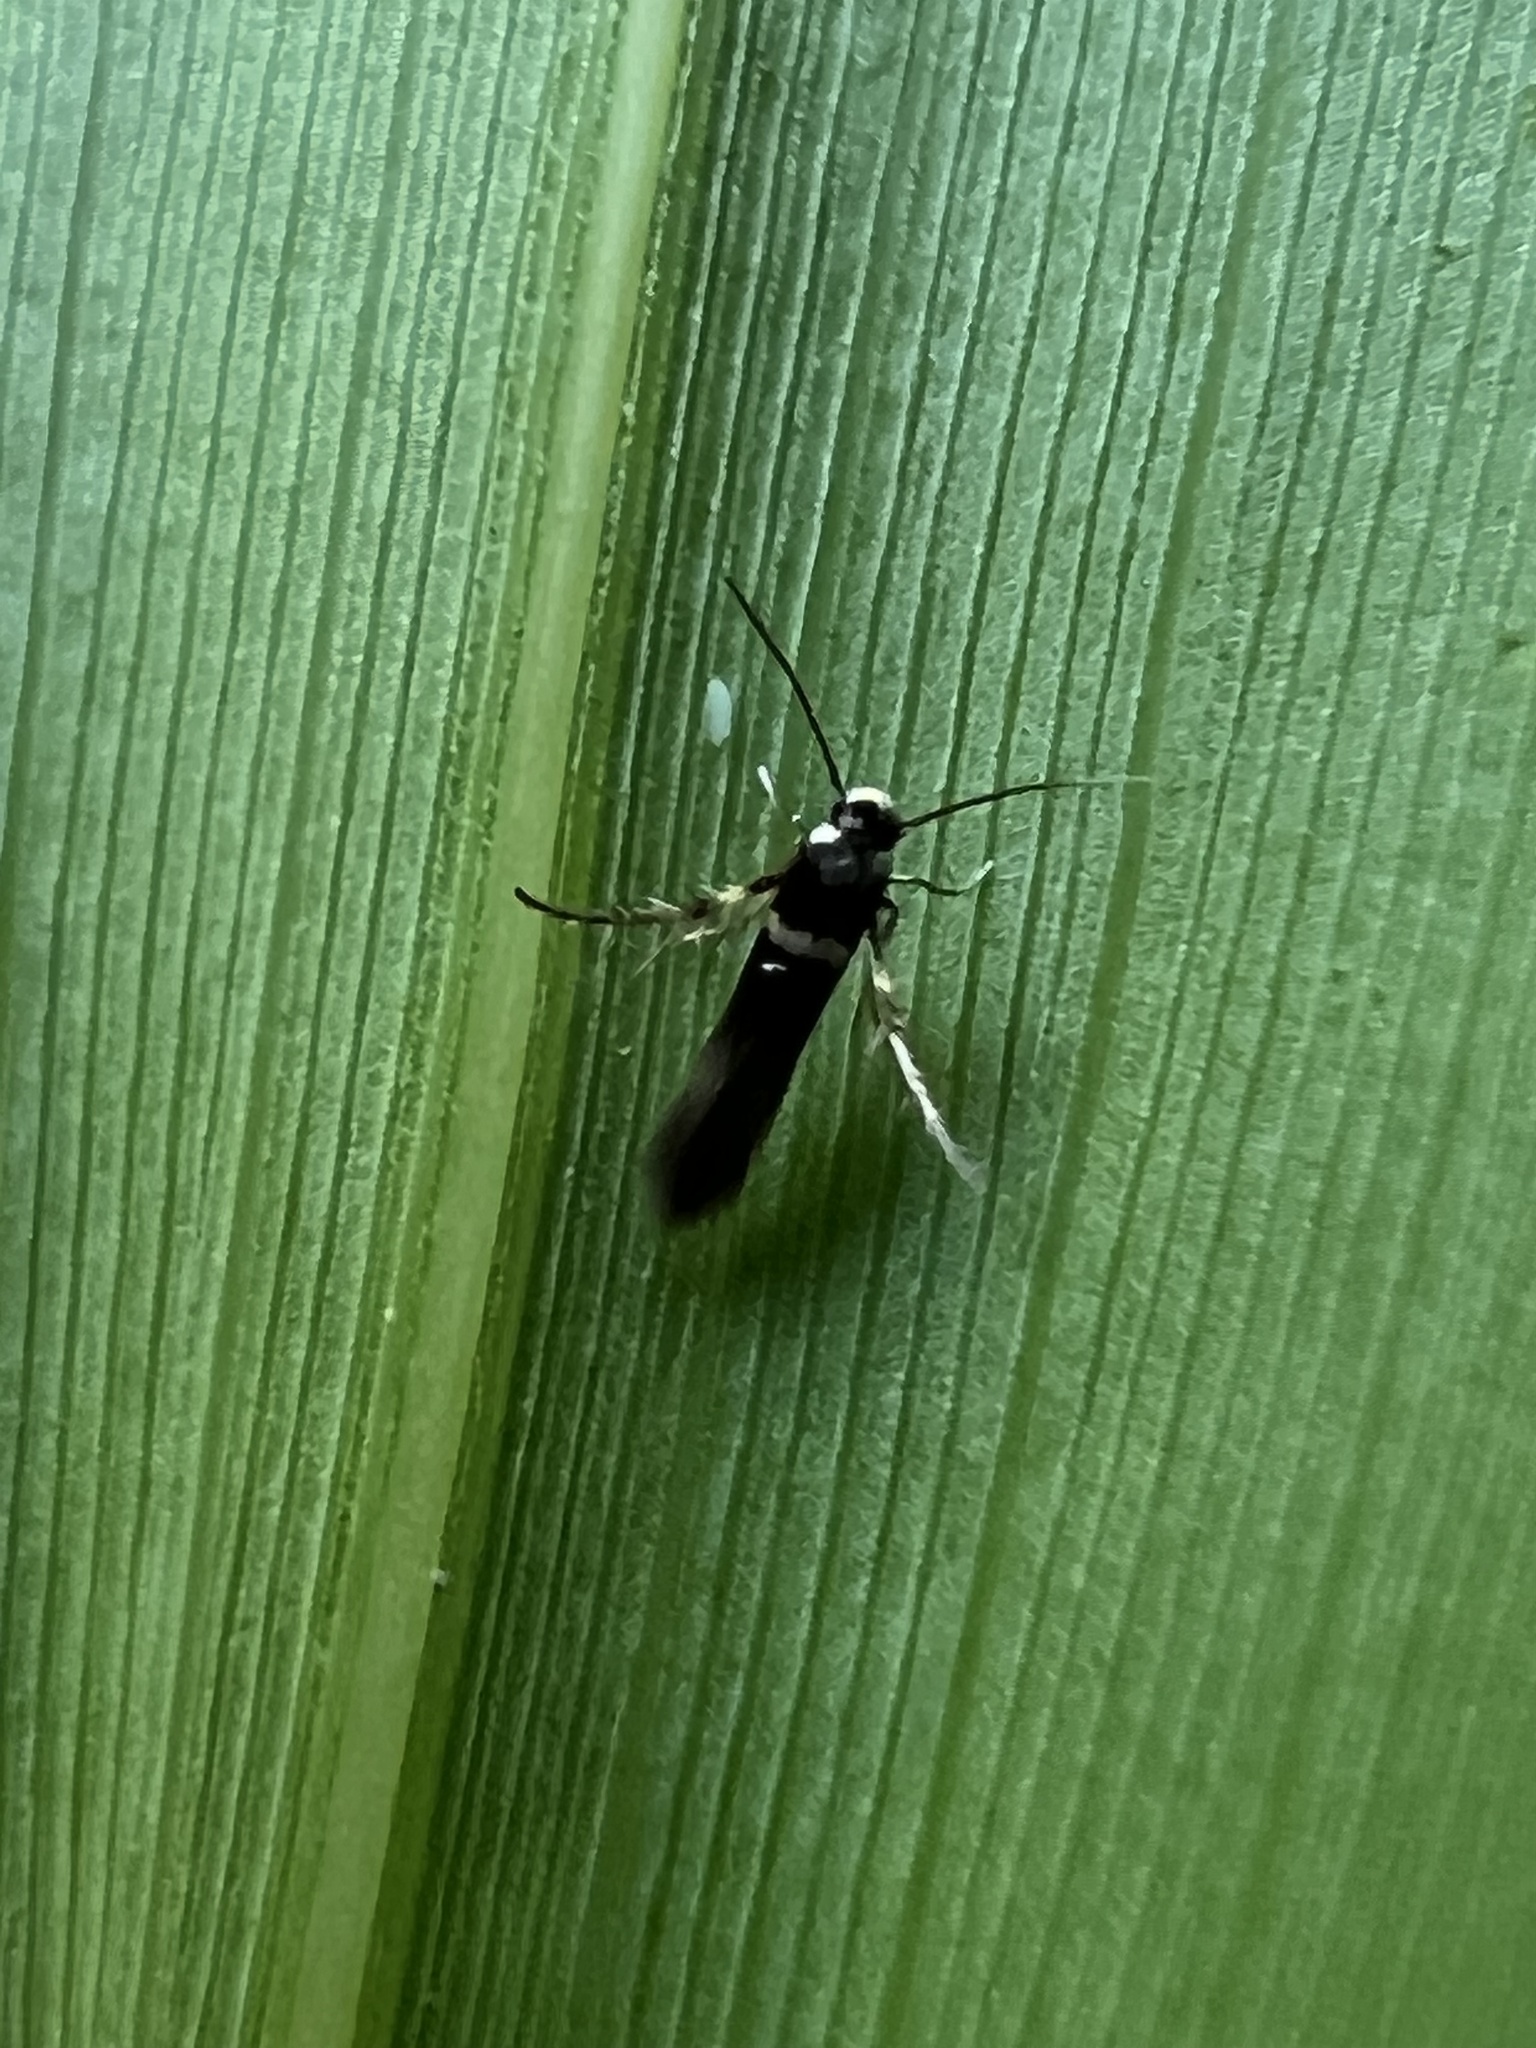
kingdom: Animalia
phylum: Arthropoda
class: Insecta
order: Lepidoptera
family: Heliodinidae
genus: Cycloplasis
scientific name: Cycloplasis panicifoliella
